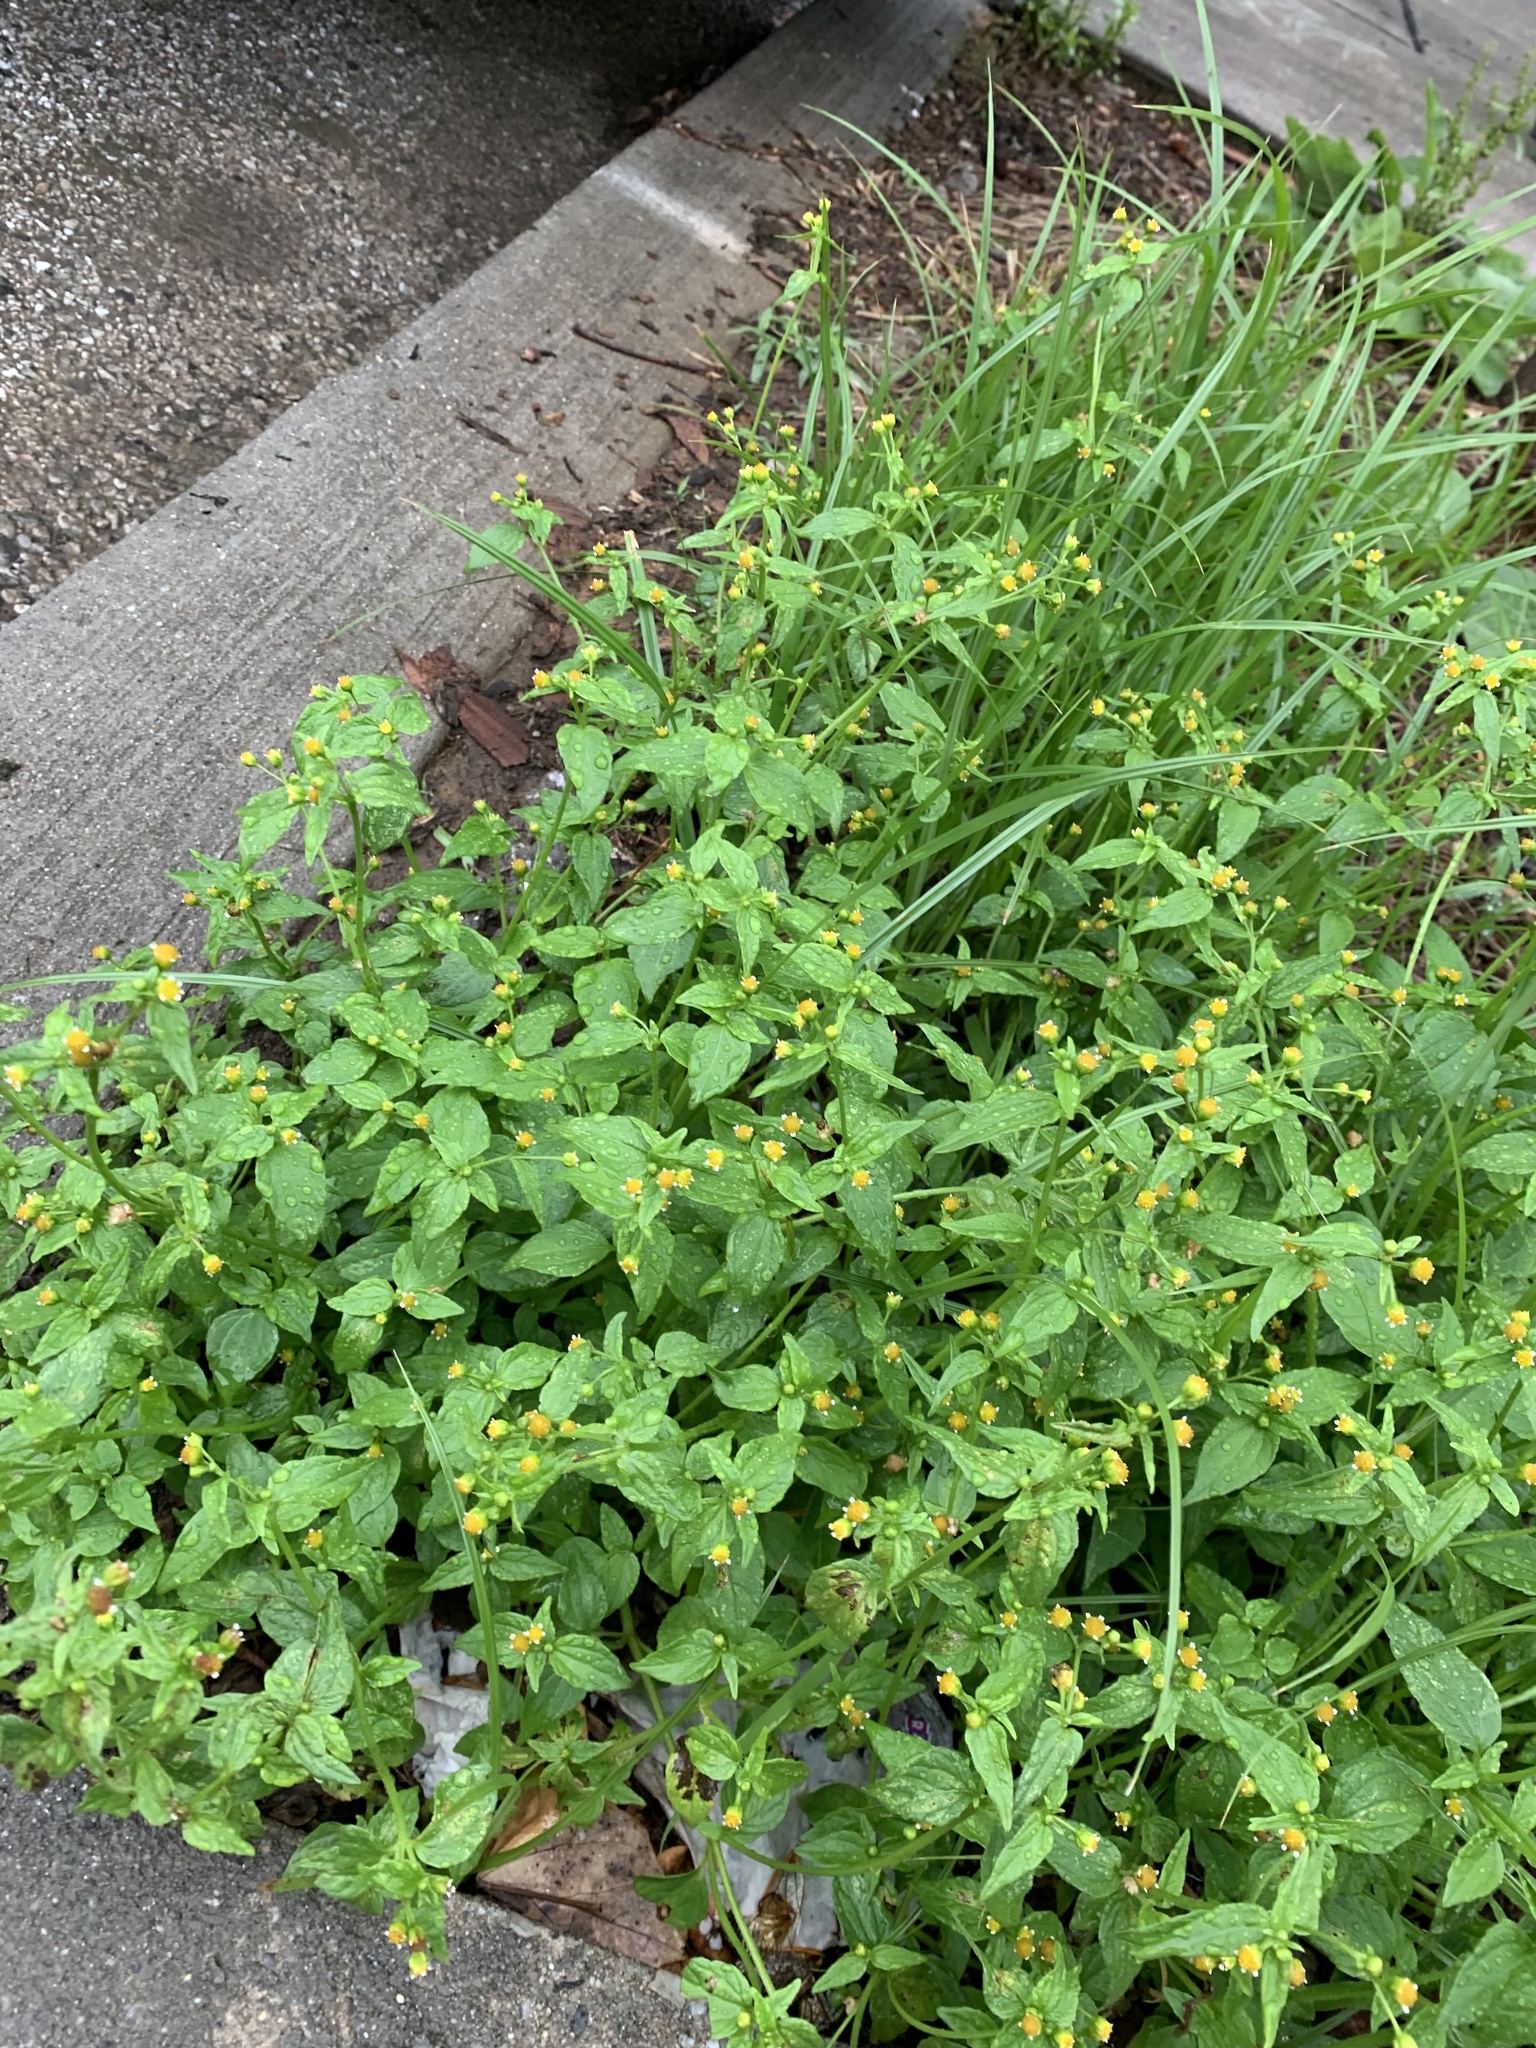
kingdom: Plantae
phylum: Tracheophyta
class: Magnoliopsida
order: Asterales
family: Asteraceae
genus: Galinsoga
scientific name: Galinsoga parviflora
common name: Gallant soldier
